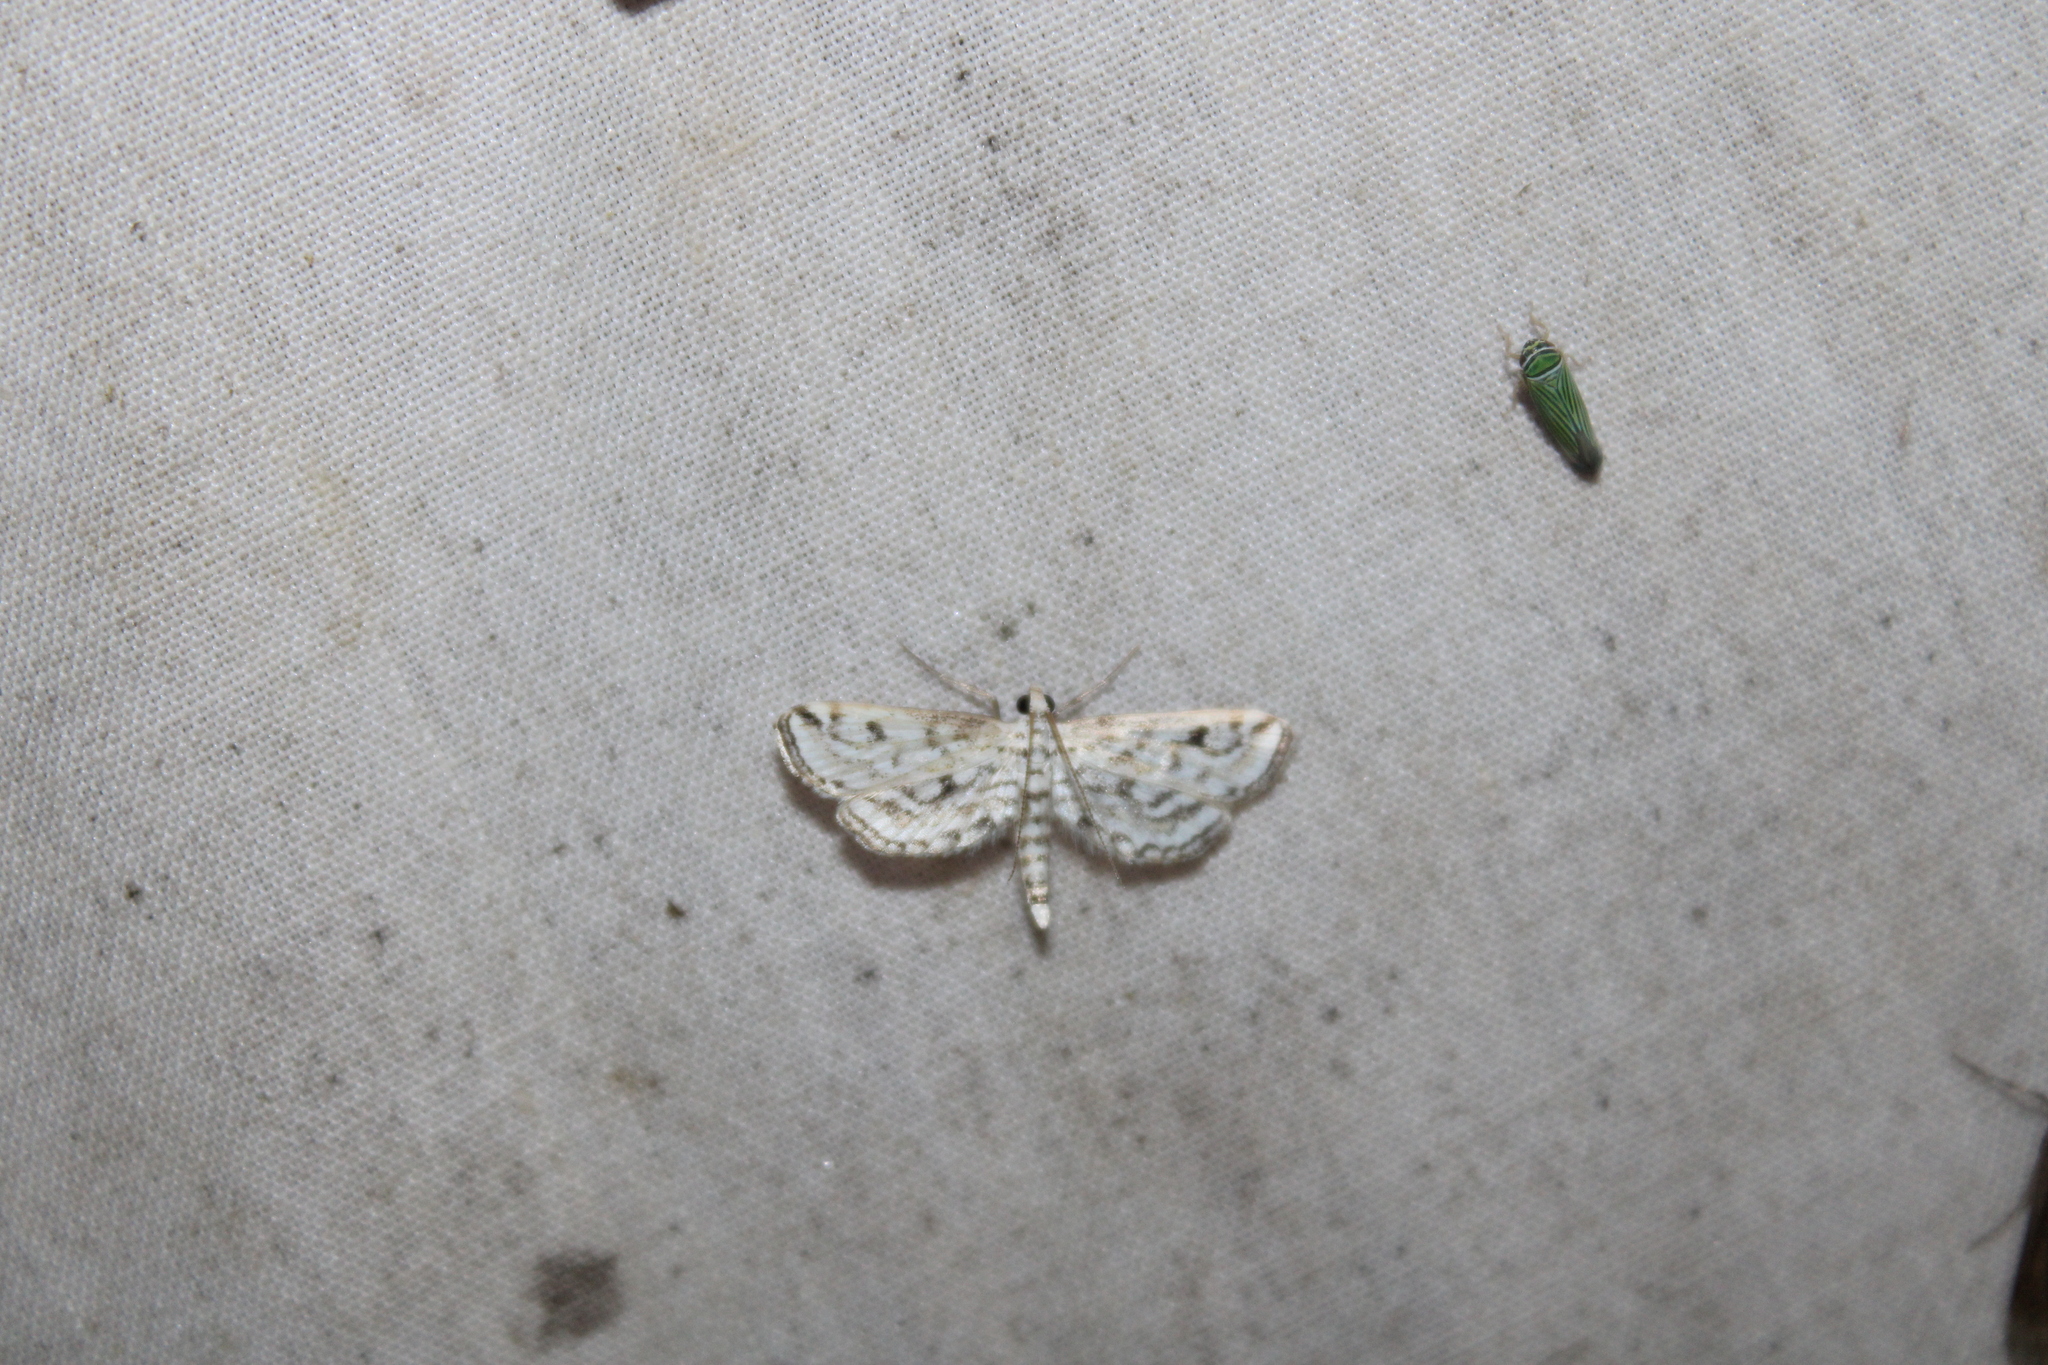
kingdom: Animalia
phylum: Arthropoda
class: Insecta
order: Lepidoptera
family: Crambidae
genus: Parapoynx
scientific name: Parapoynx allionealis
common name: Bladderwort casemaker
